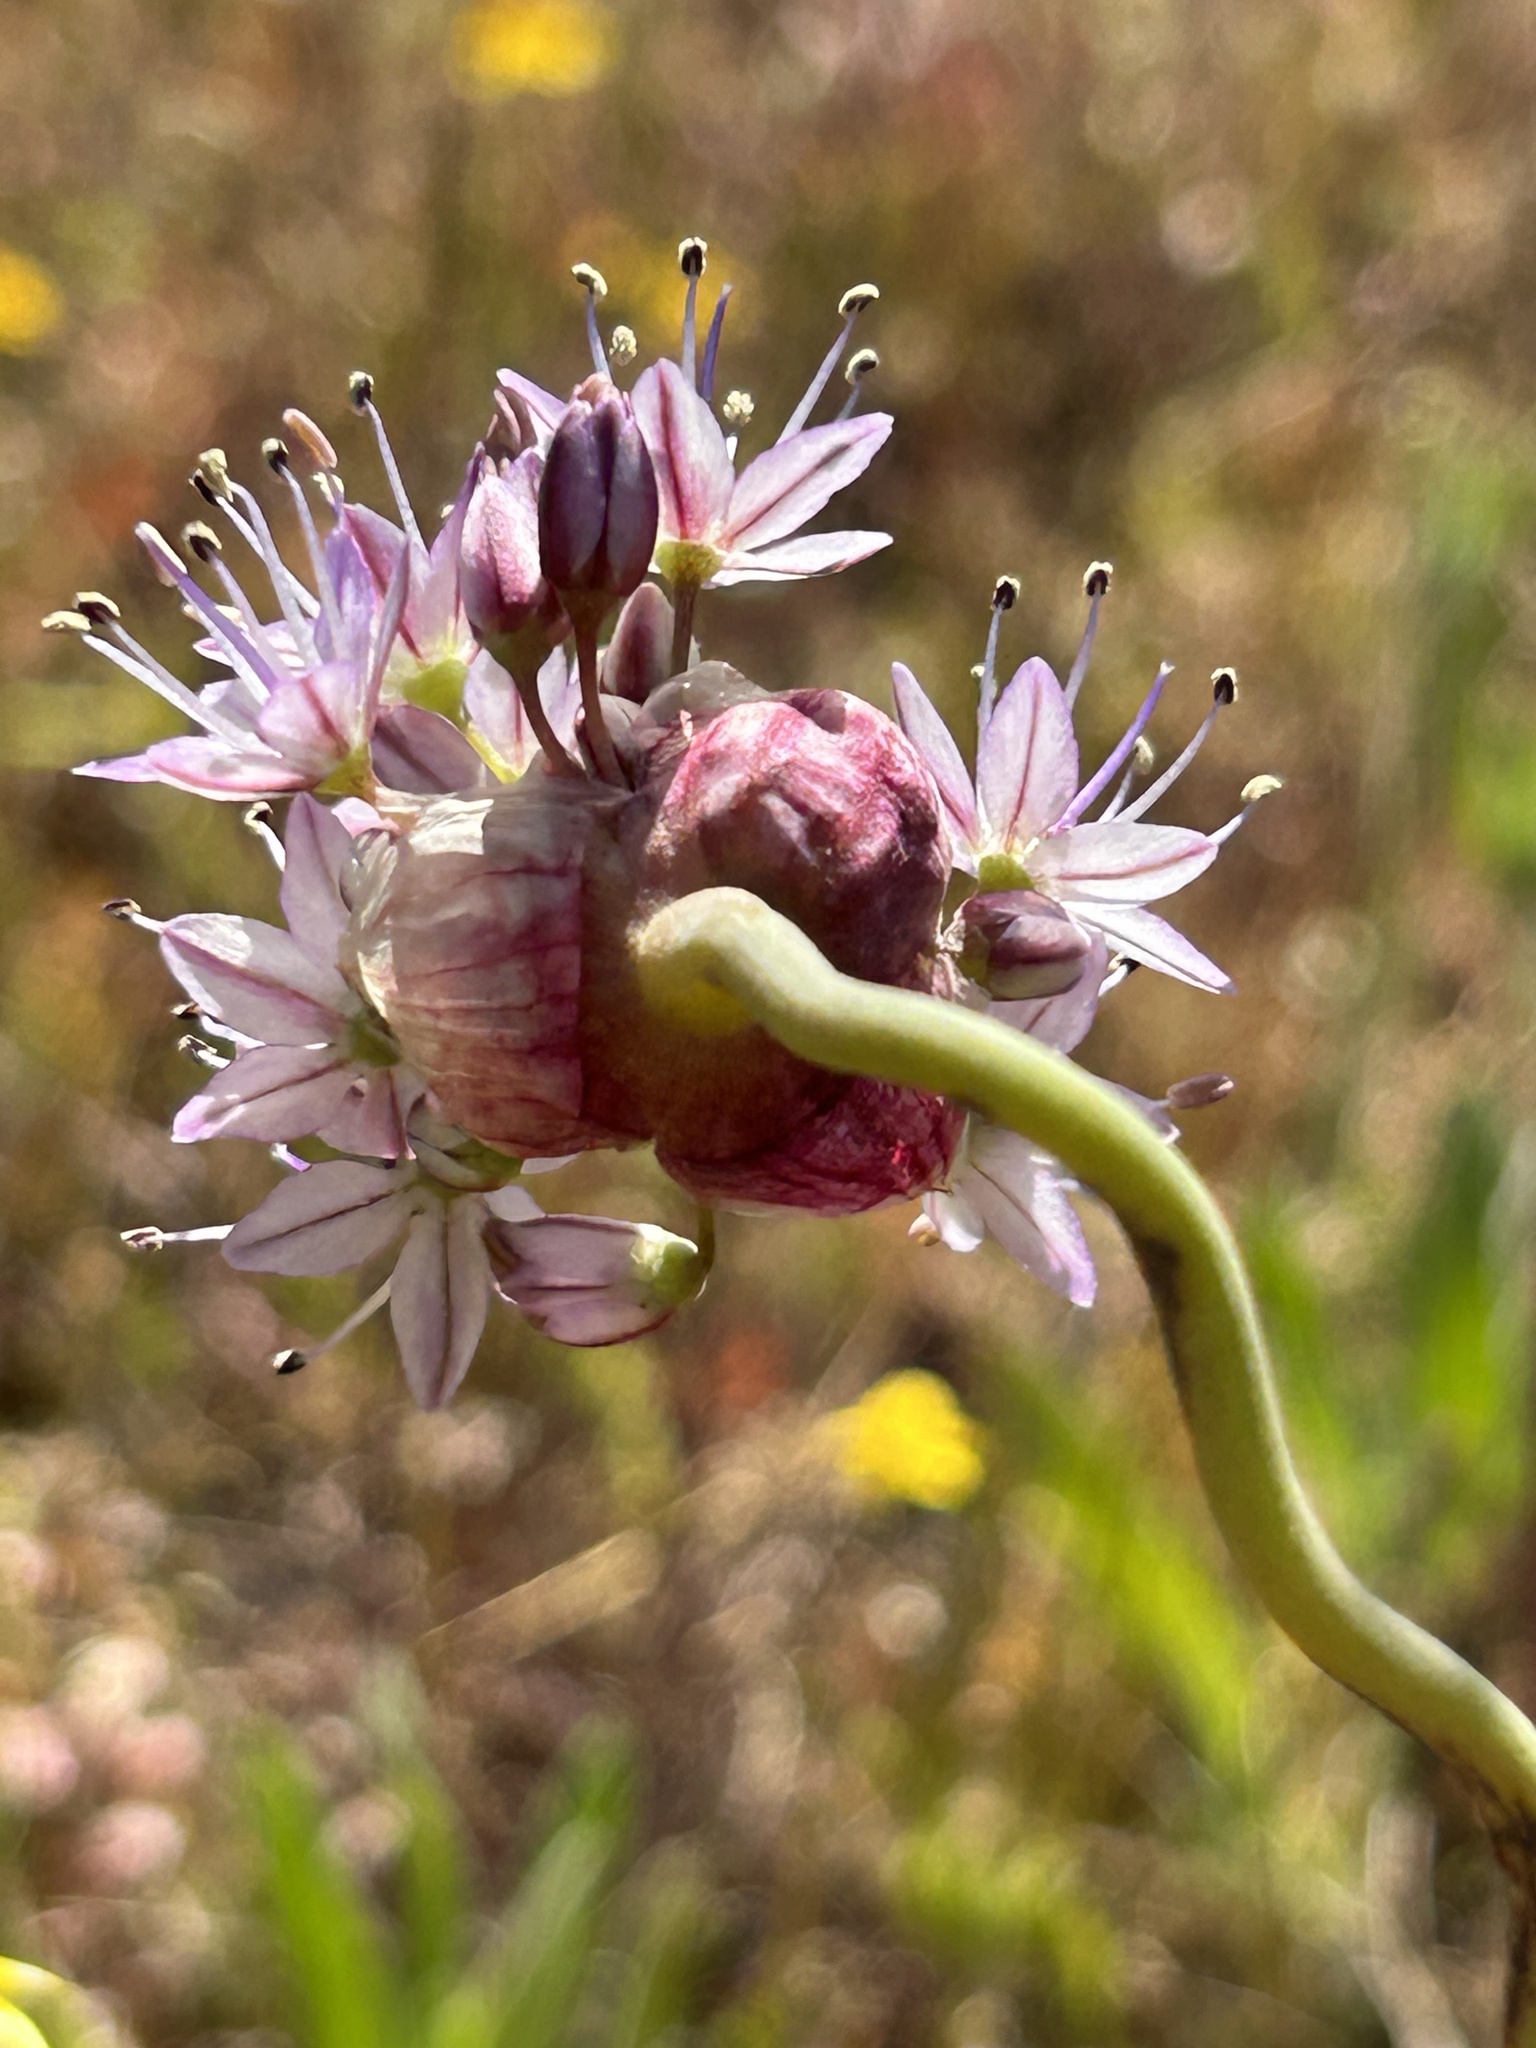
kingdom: Plantae
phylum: Tracheophyta
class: Liliopsida
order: Asparagales
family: Amaryllidaceae
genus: Allium
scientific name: Allium howellii
